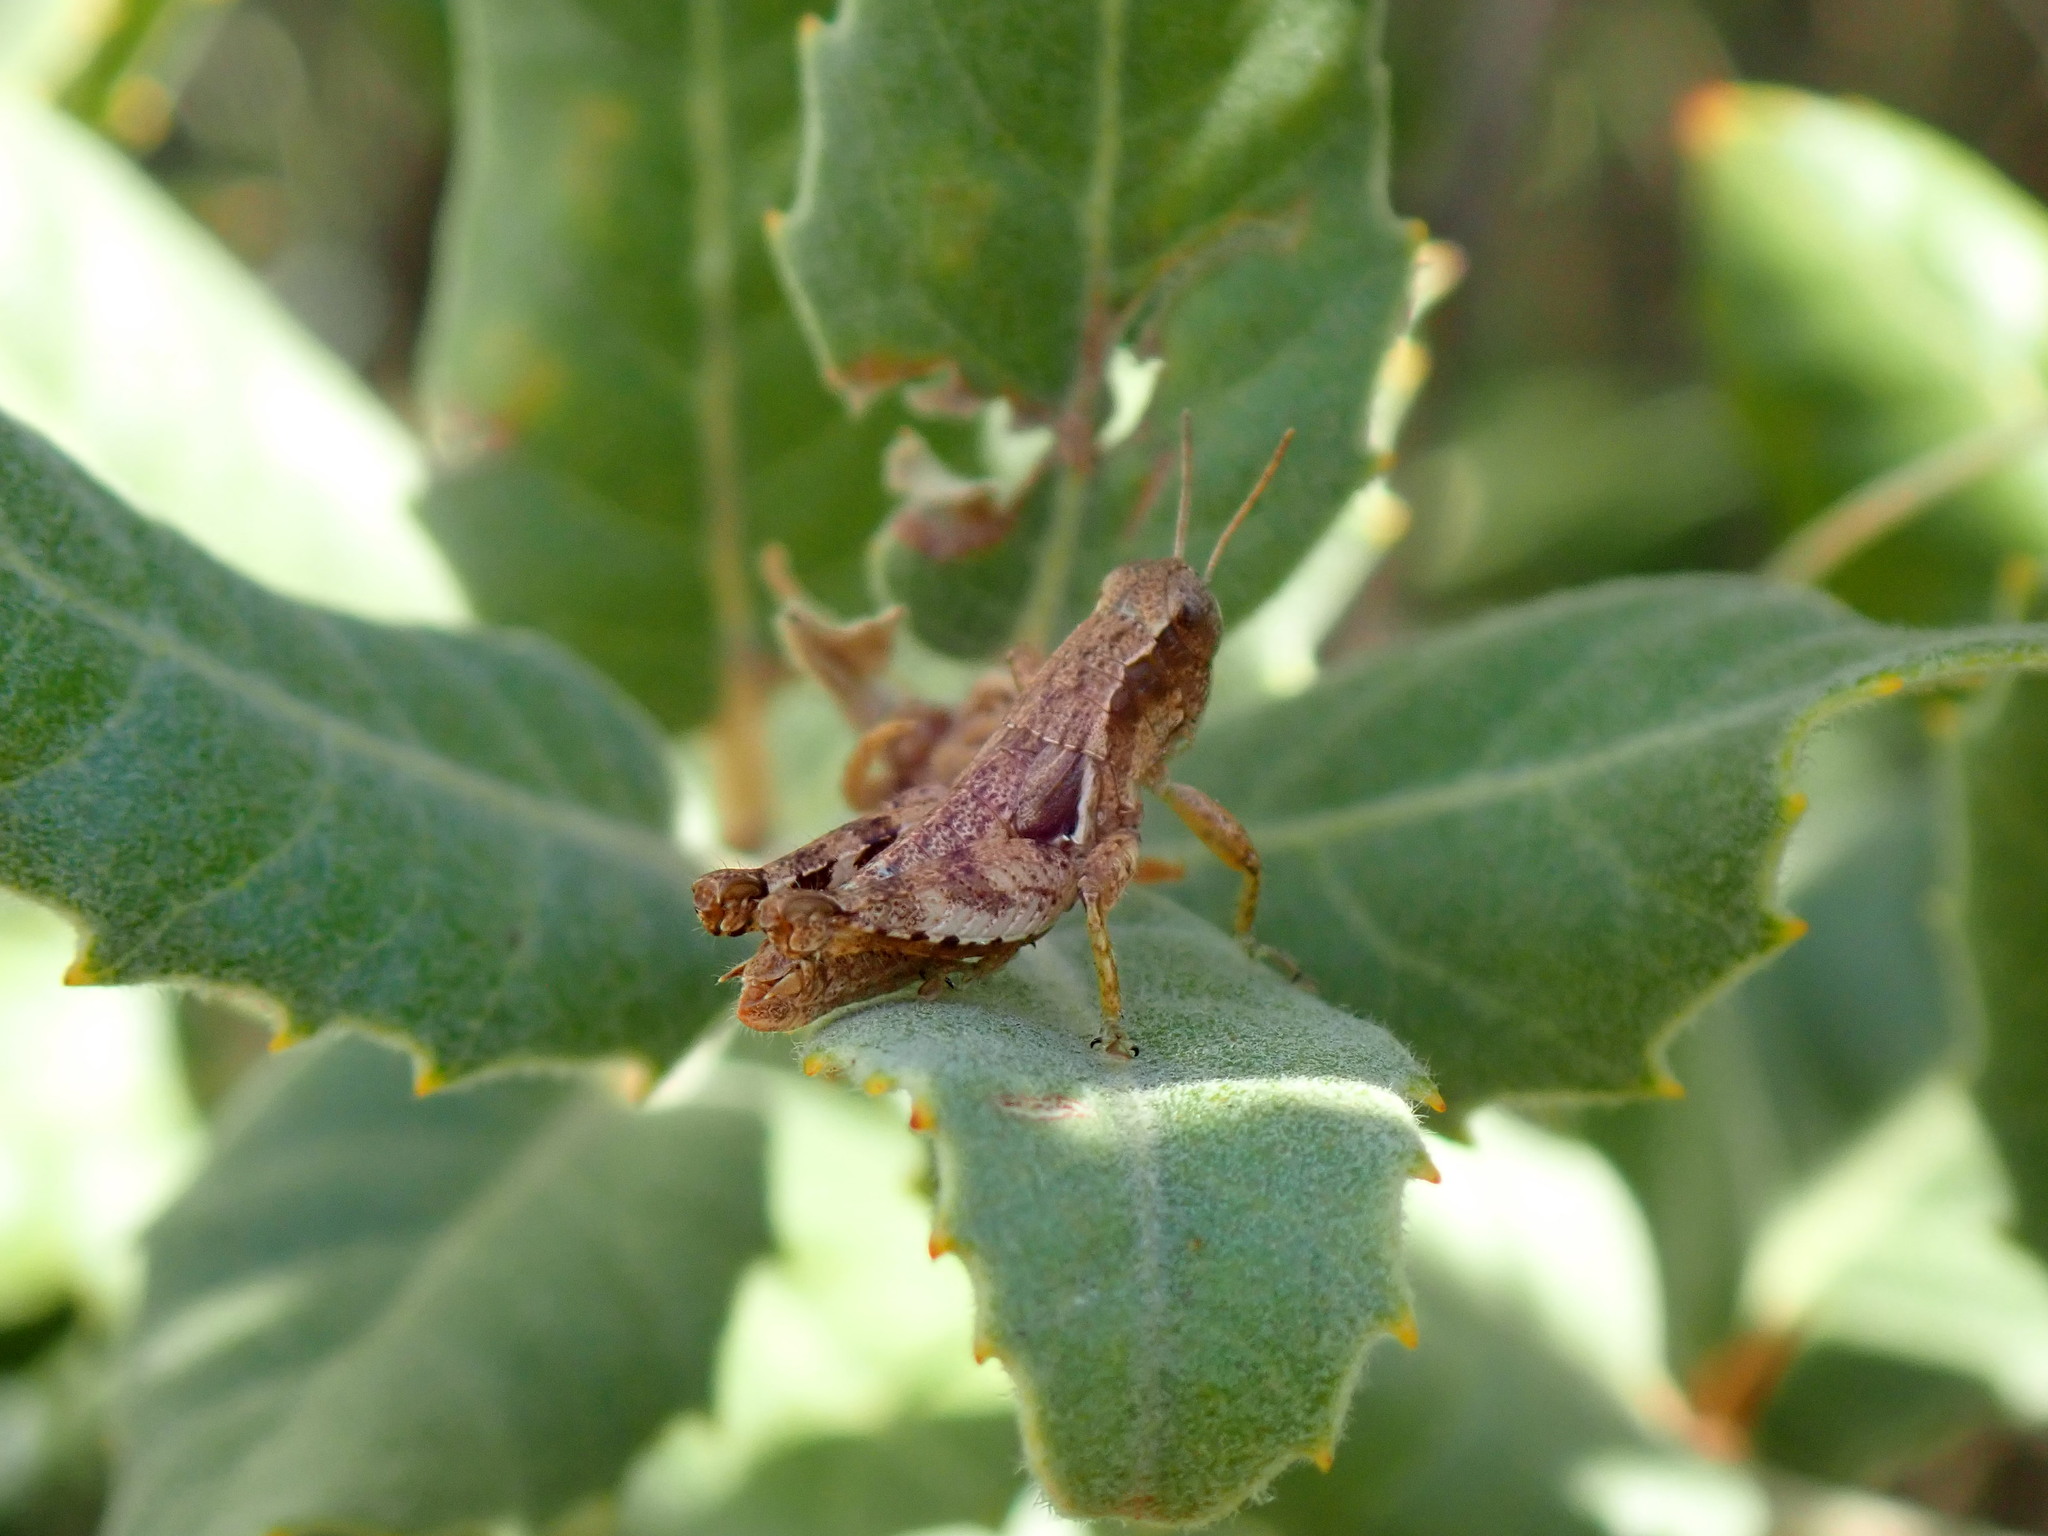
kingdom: Animalia
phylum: Arthropoda
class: Insecta
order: Orthoptera
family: Acrididae
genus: Pezotettix
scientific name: Pezotettix giornae
